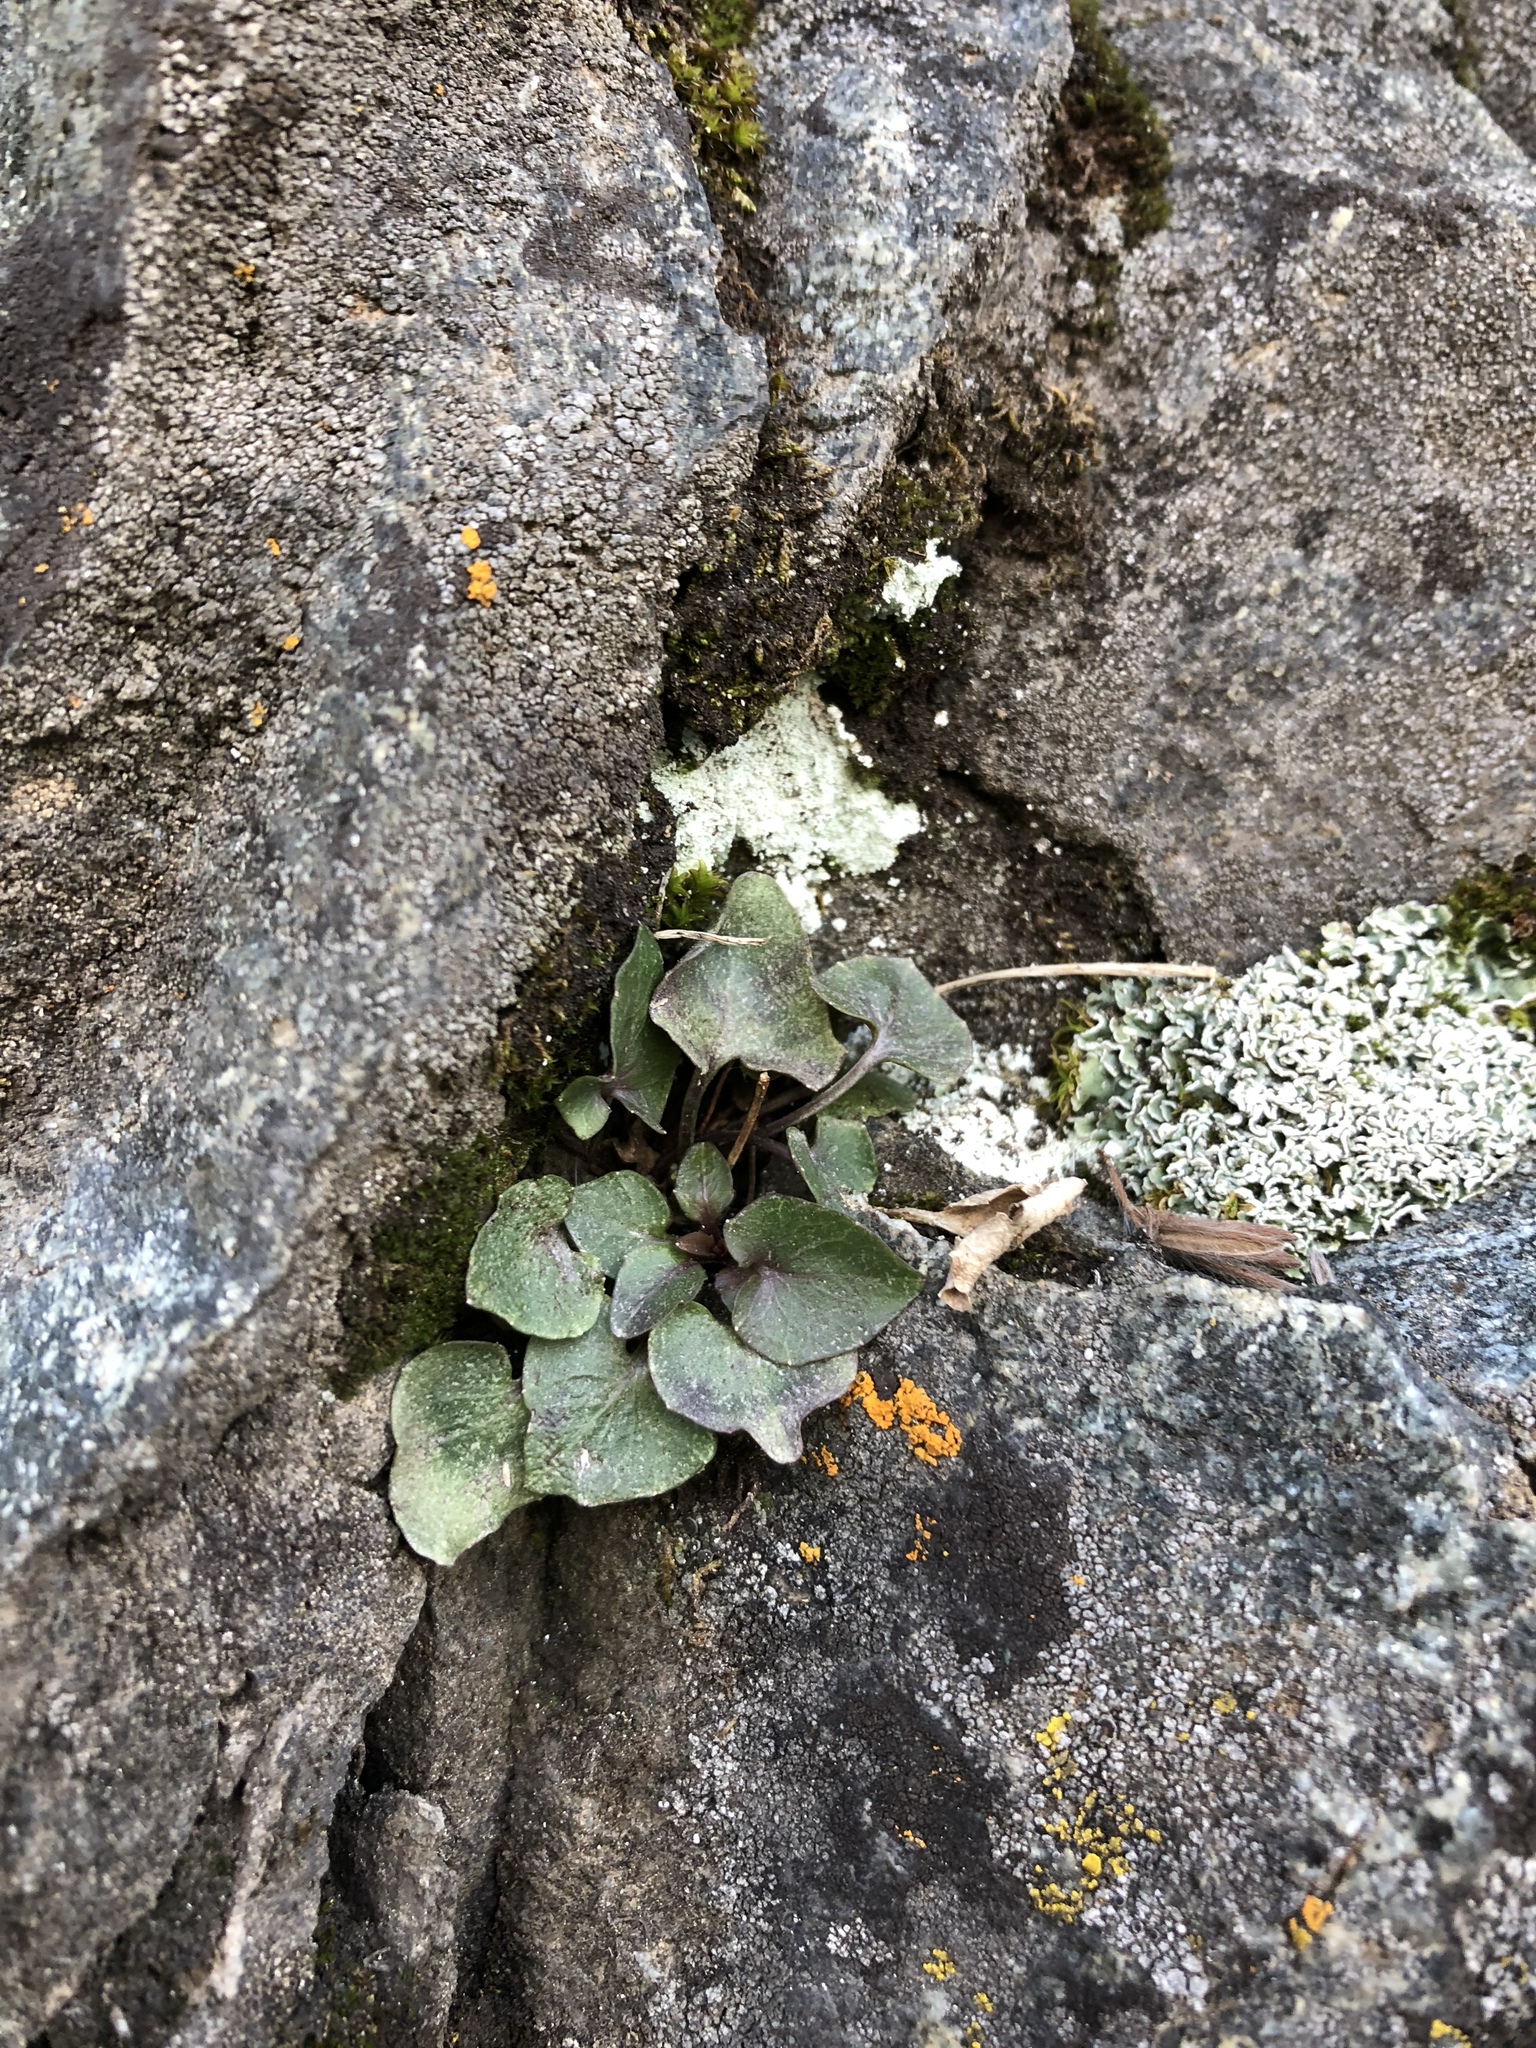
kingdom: Plantae
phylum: Tracheophyta
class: Magnoliopsida
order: Caryophyllales
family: Polygonaceae
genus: Oxyria
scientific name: Oxyria digyna
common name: Alpine mountain-sorrel
